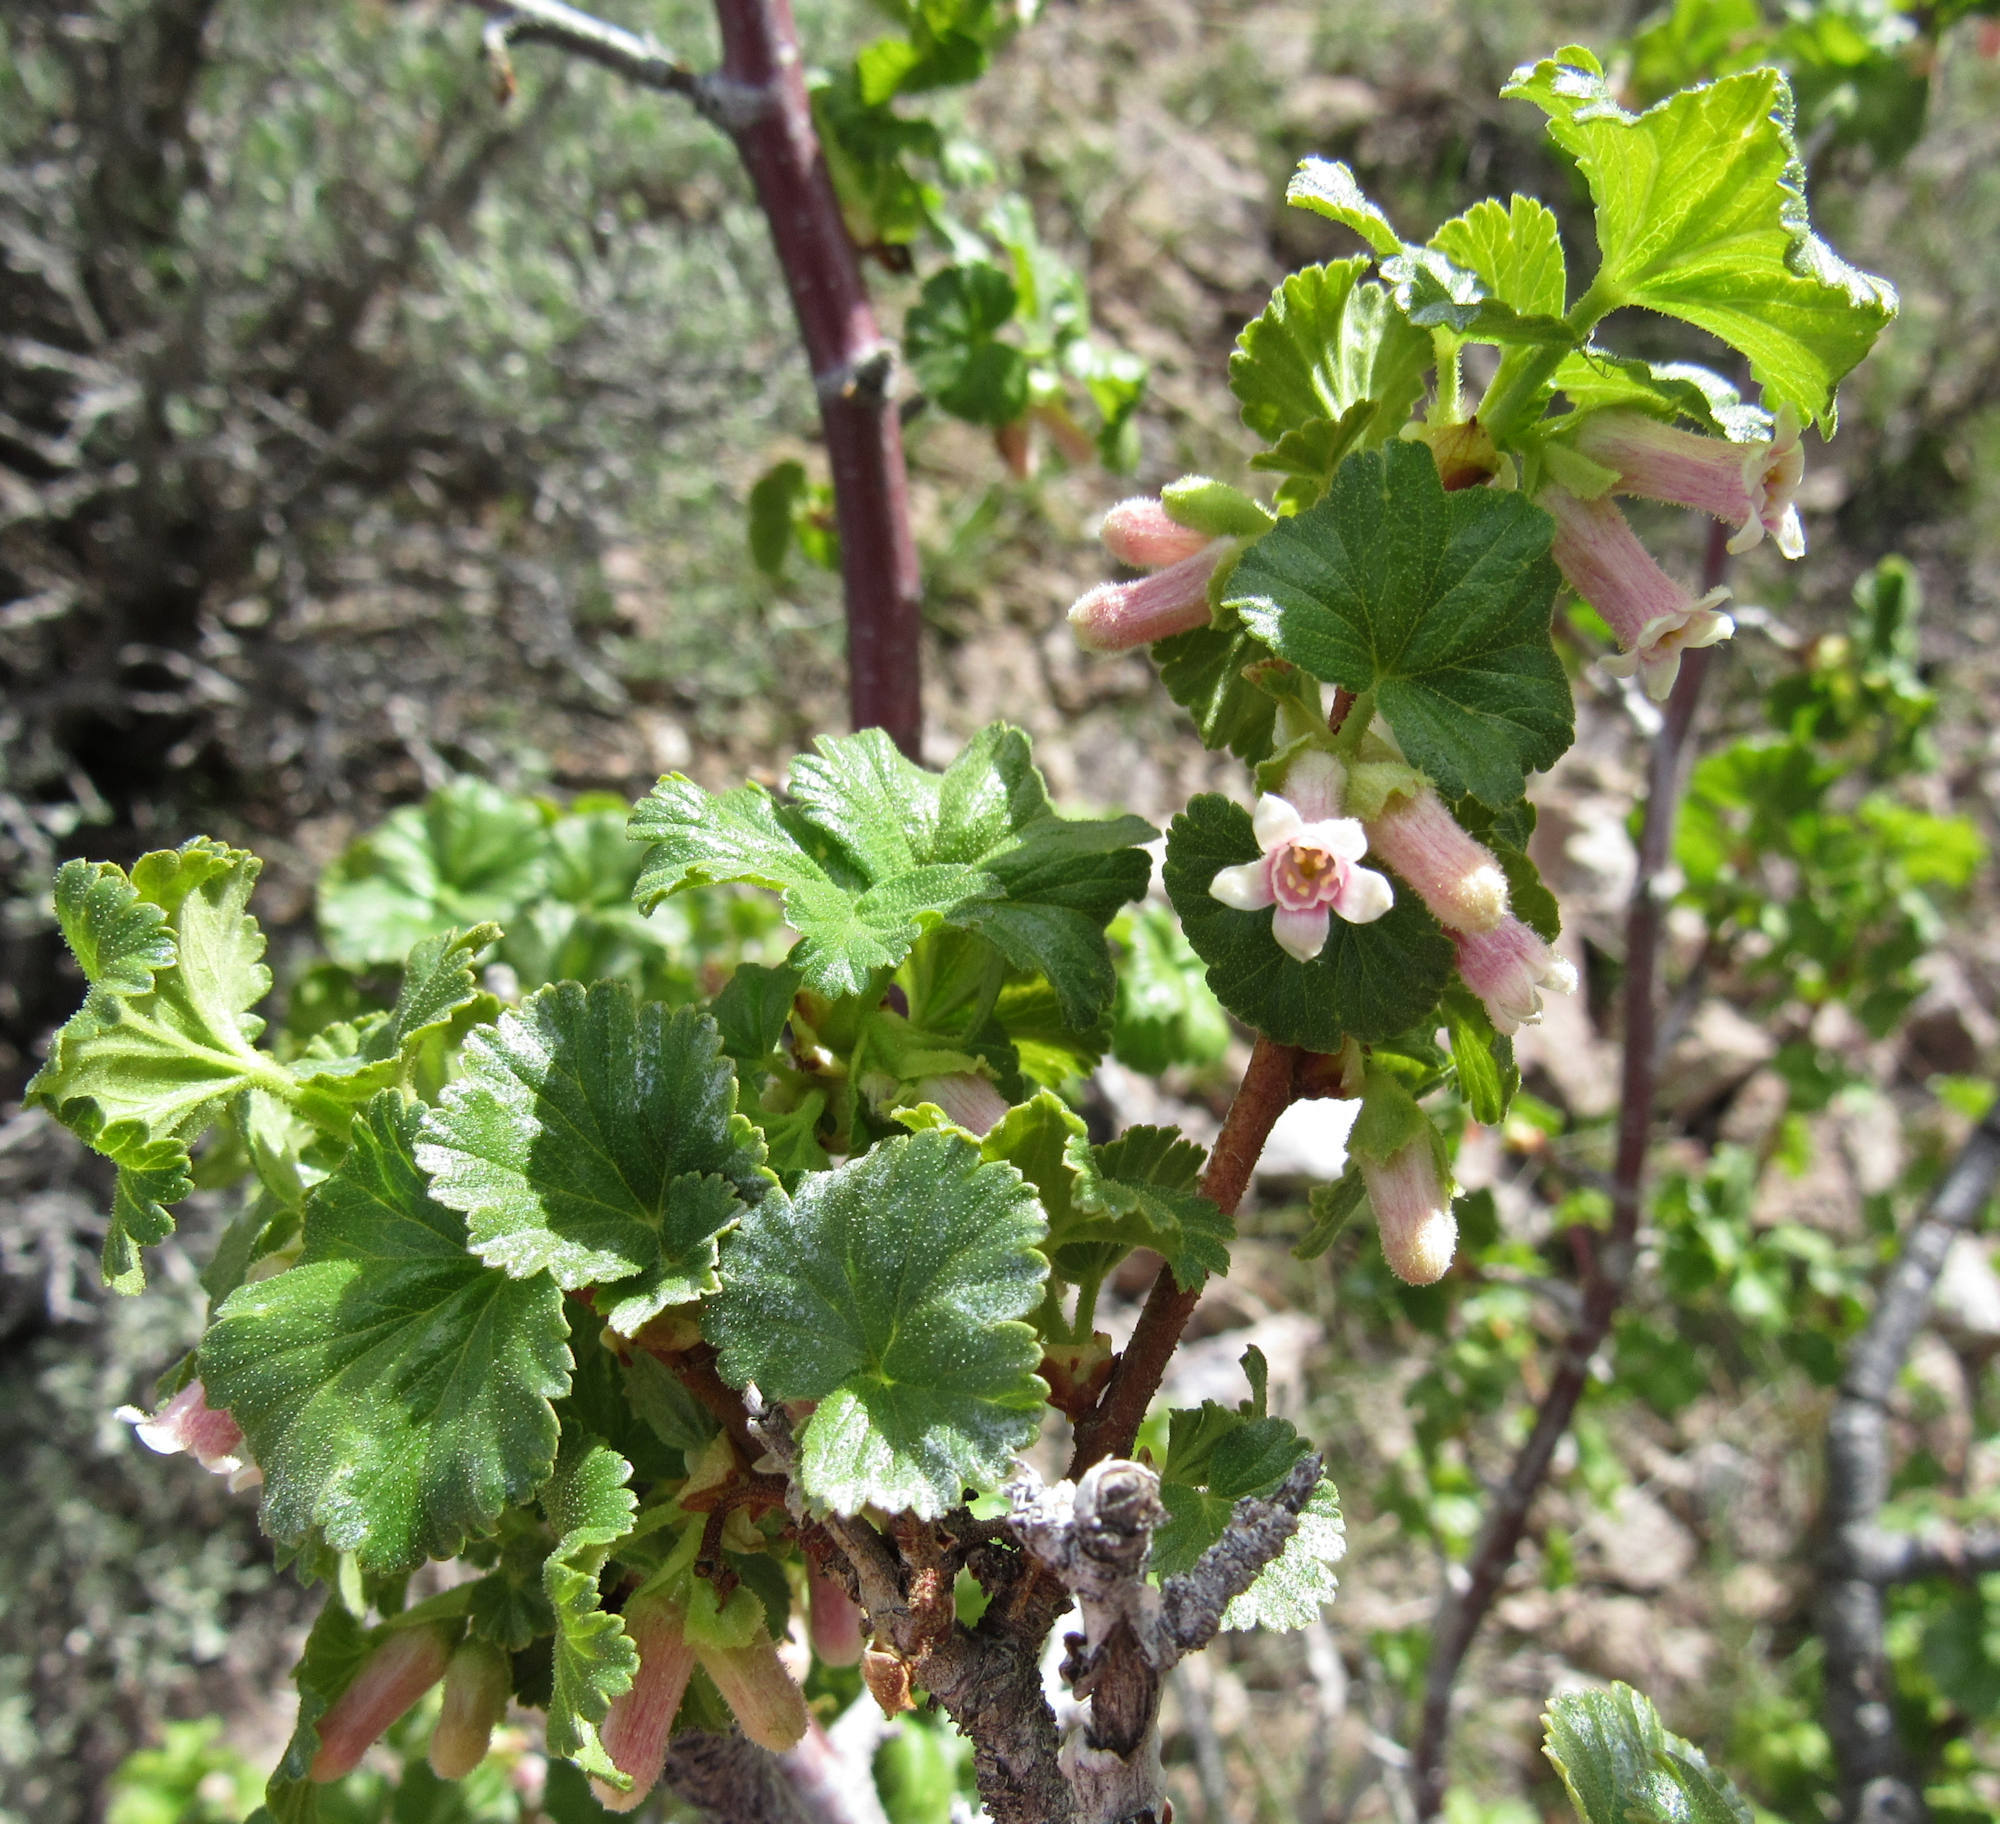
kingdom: Plantae
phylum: Tracheophyta
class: Magnoliopsida
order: Saxifragales
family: Grossulariaceae
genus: Ribes
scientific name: Ribes cereum
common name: Wax currant
